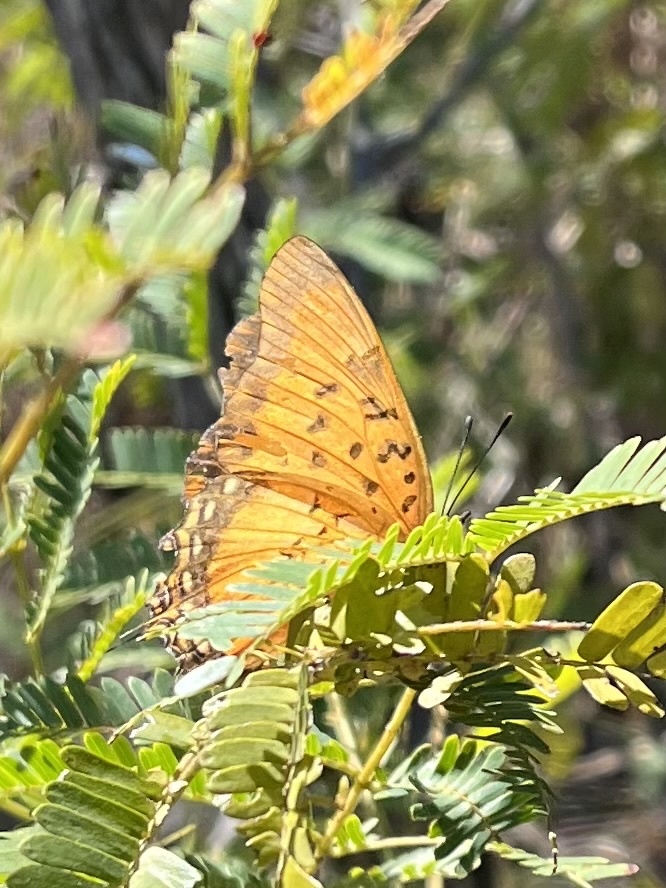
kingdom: Animalia
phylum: Arthropoda
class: Insecta
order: Lepidoptera
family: Nymphalidae
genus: Charaxes
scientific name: Charaxes jahlusa
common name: Pearl-spotted charaxes
